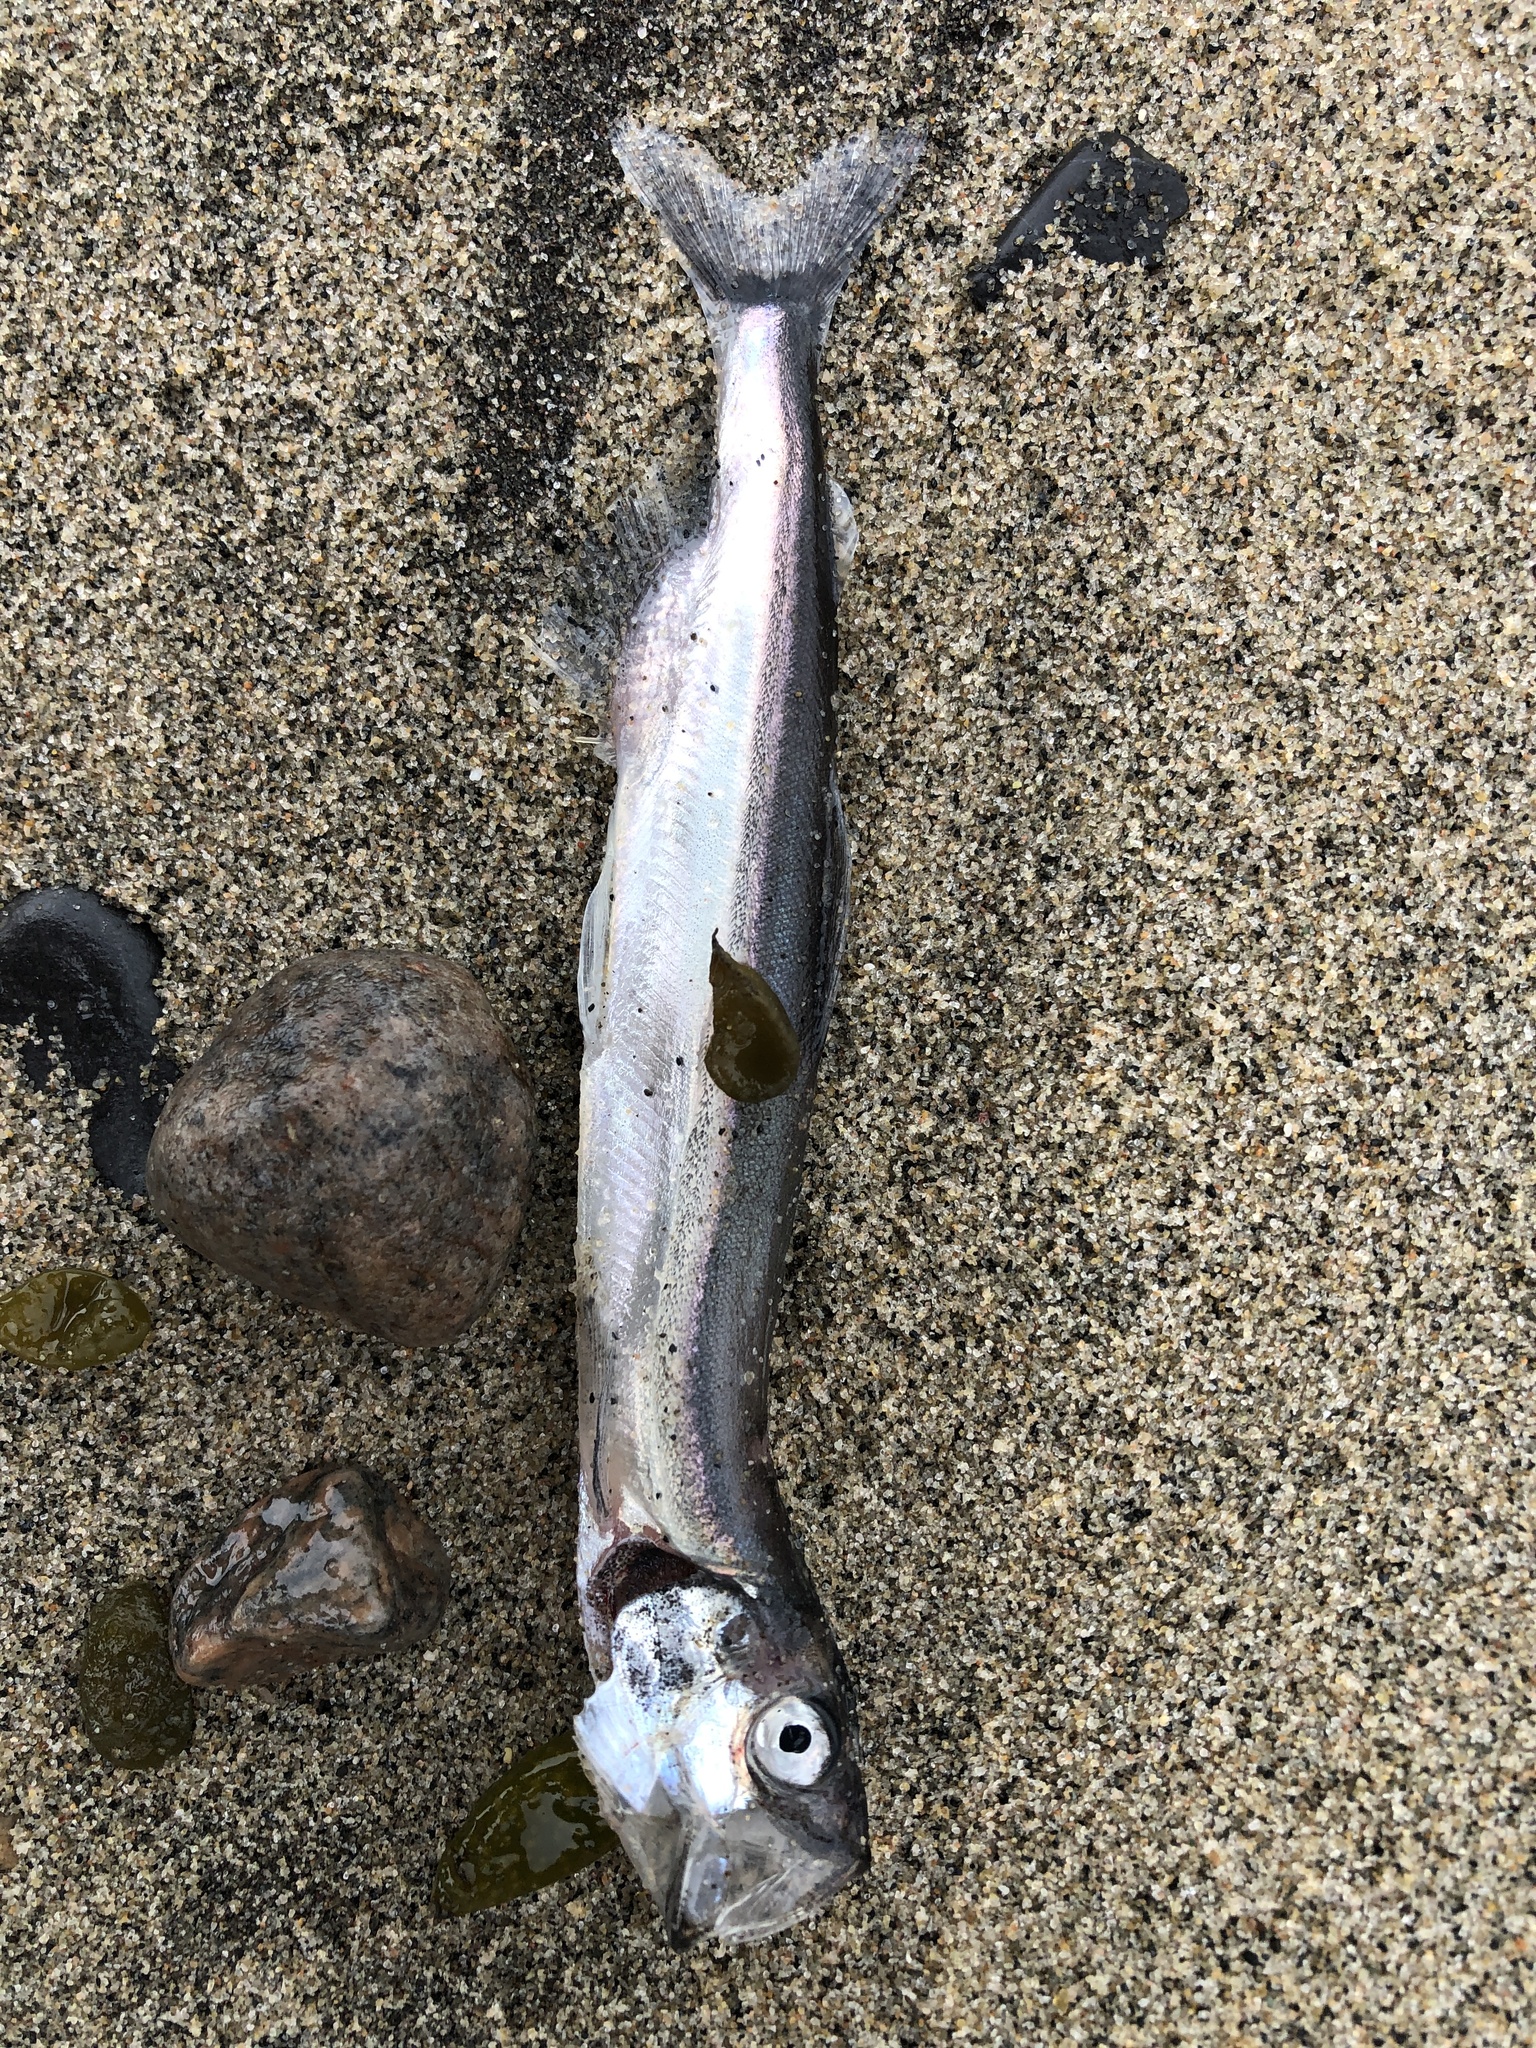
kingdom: Animalia
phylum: Chordata
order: Osmeriformes
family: Osmeridae
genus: Mallotus
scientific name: Mallotus villosus
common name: Capelin
